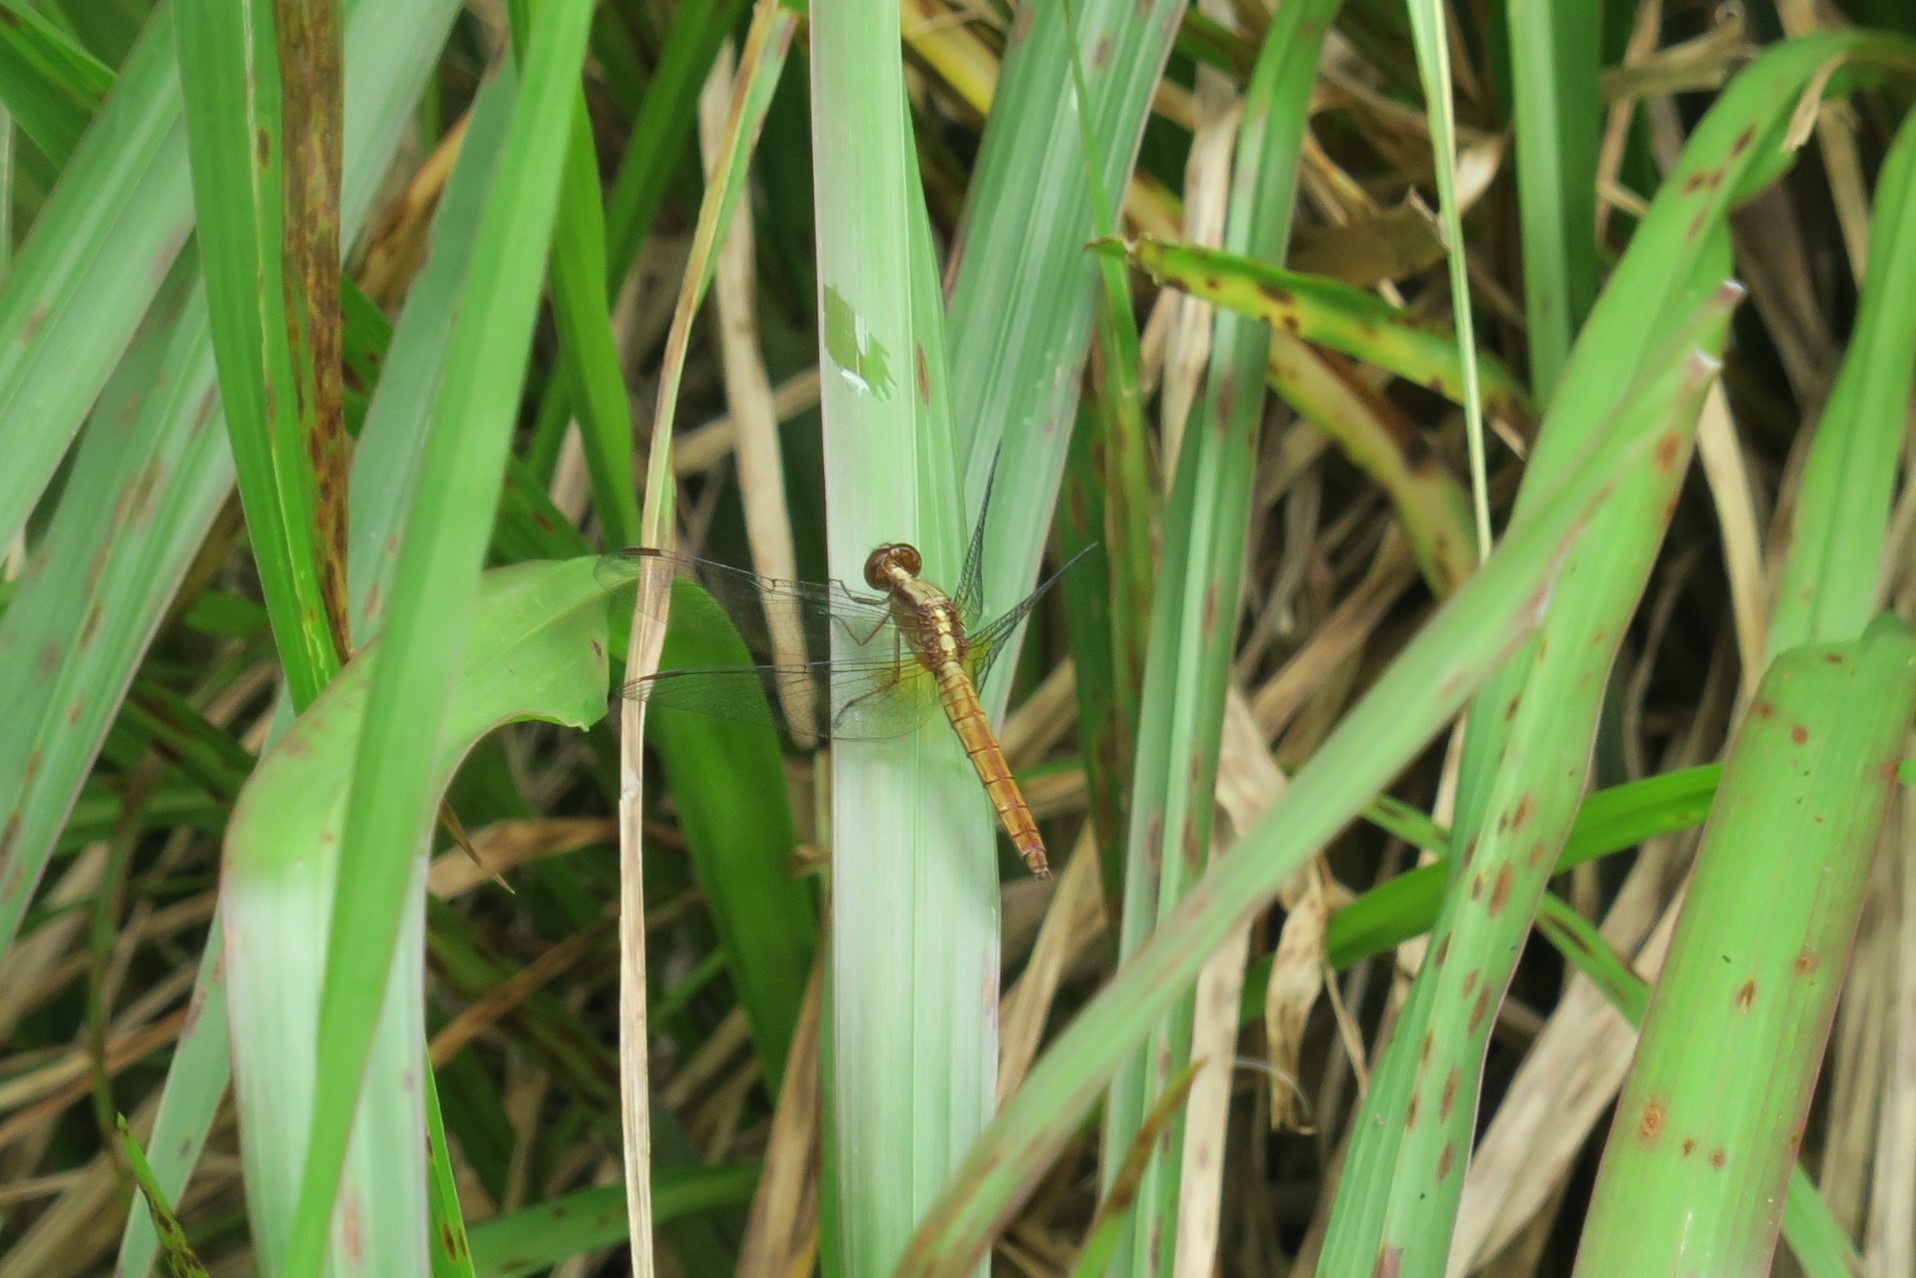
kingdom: Animalia
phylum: Arthropoda
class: Insecta
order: Odonata
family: Libellulidae
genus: Erythemis
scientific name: Erythemis peruviana
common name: Flame-tailed pondhawk
